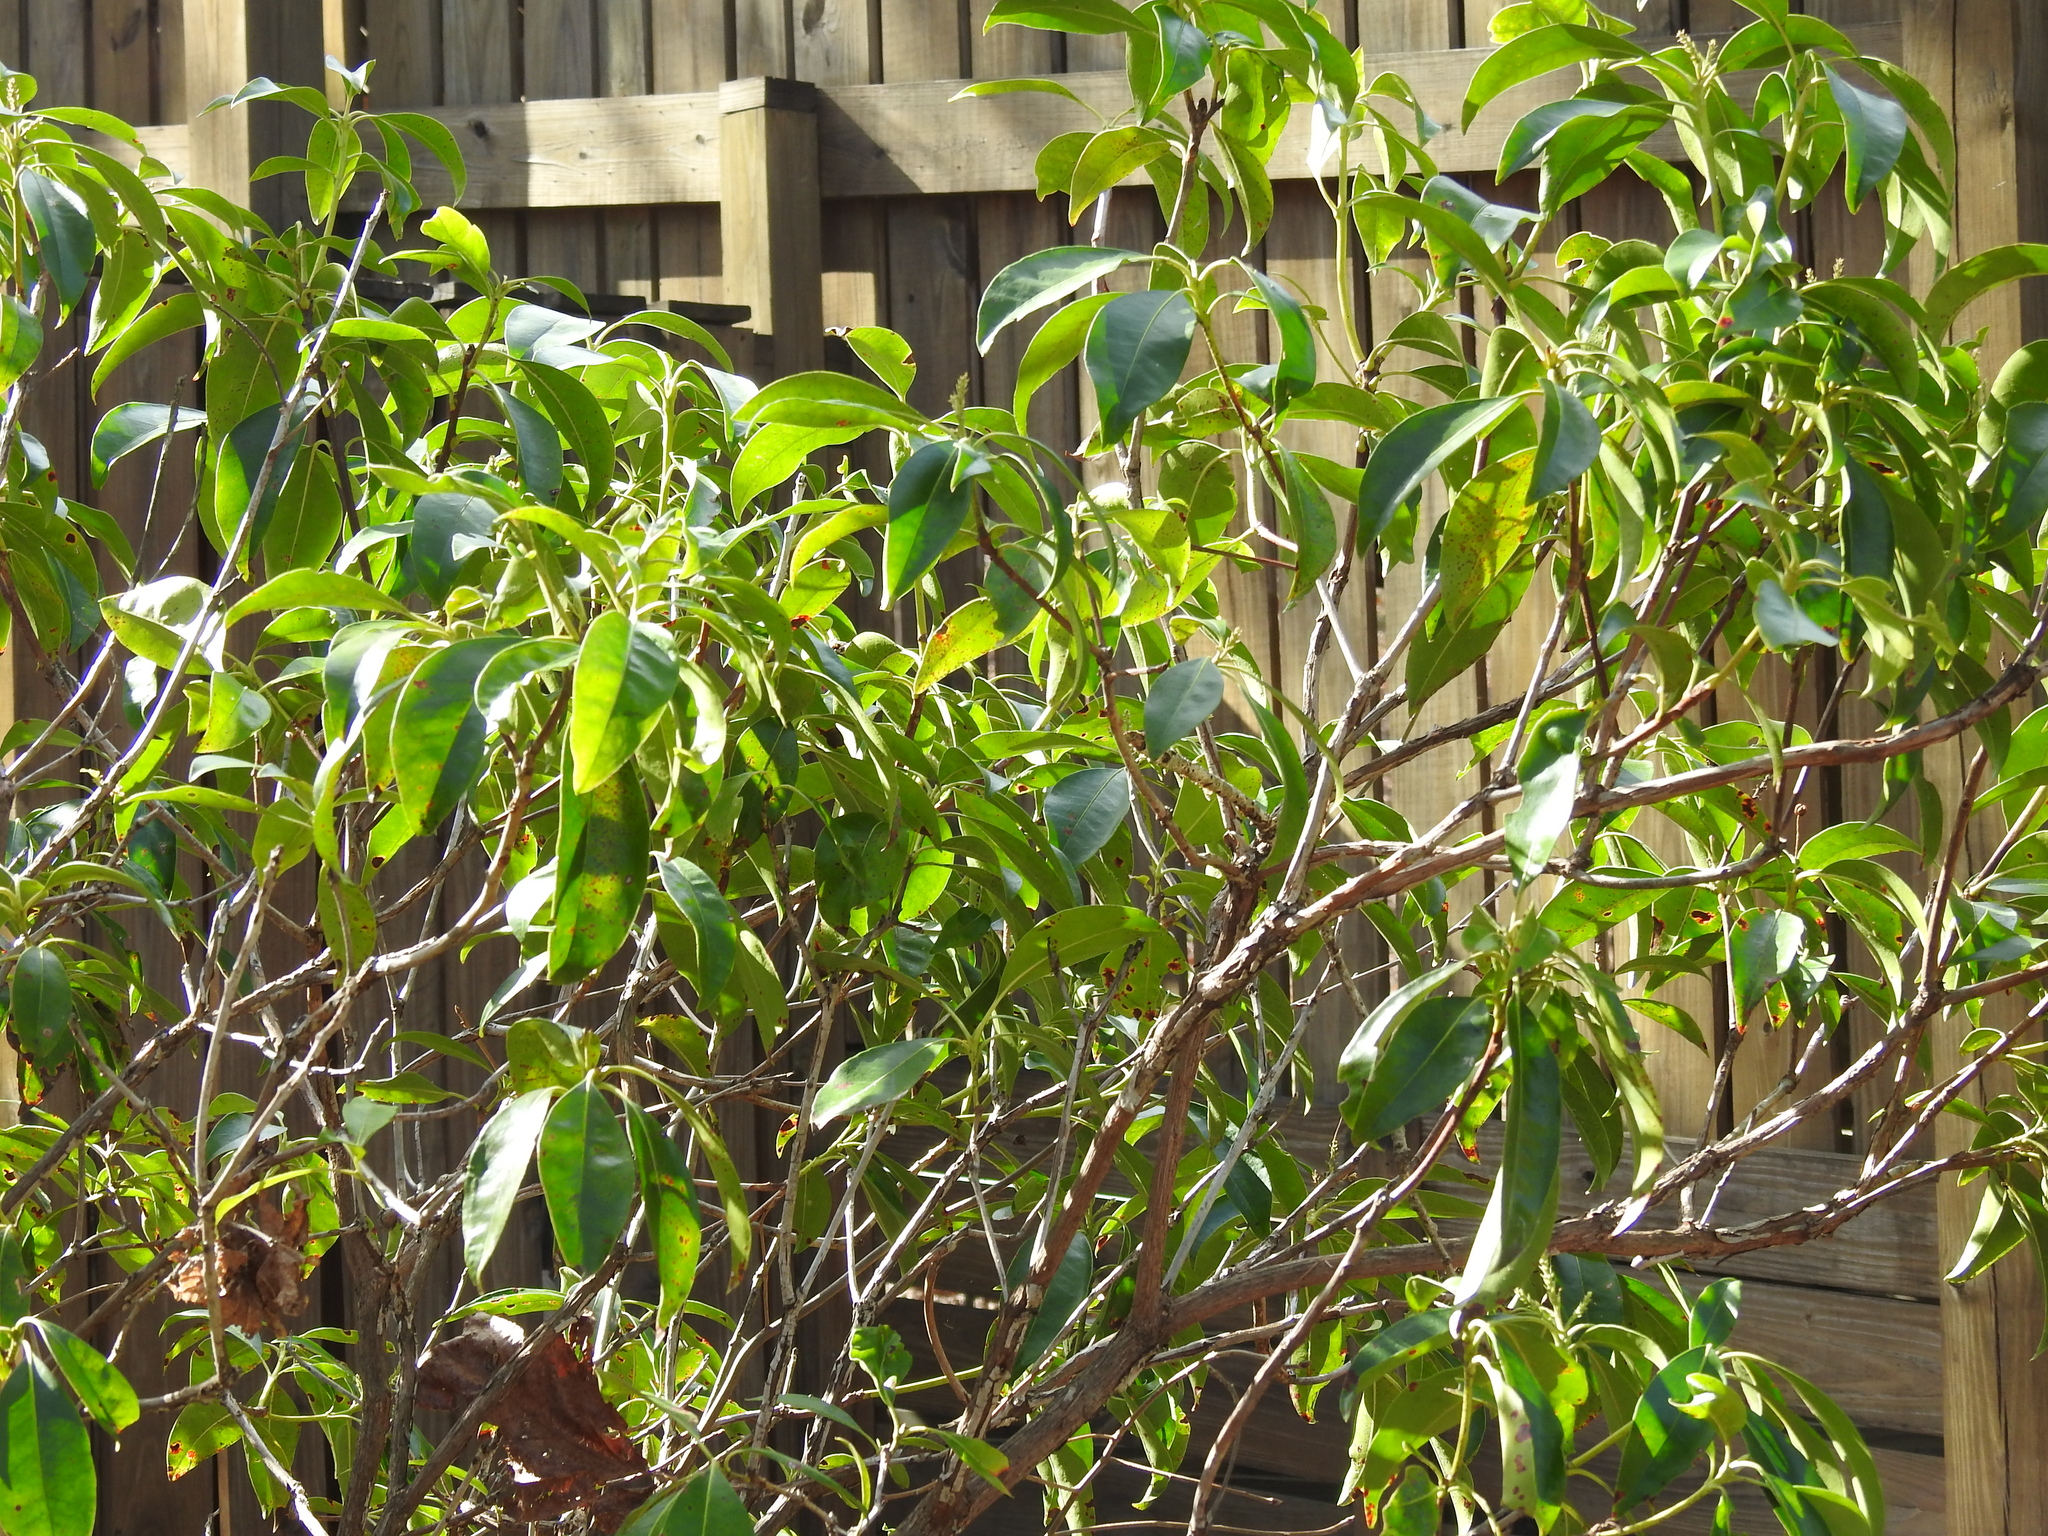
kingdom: Plantae
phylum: Tracheophyta
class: Magnoliopsida
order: Ericales
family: Ericaceae
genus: Kalmia
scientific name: Kalmia latifolia
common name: Mountain-laurel
